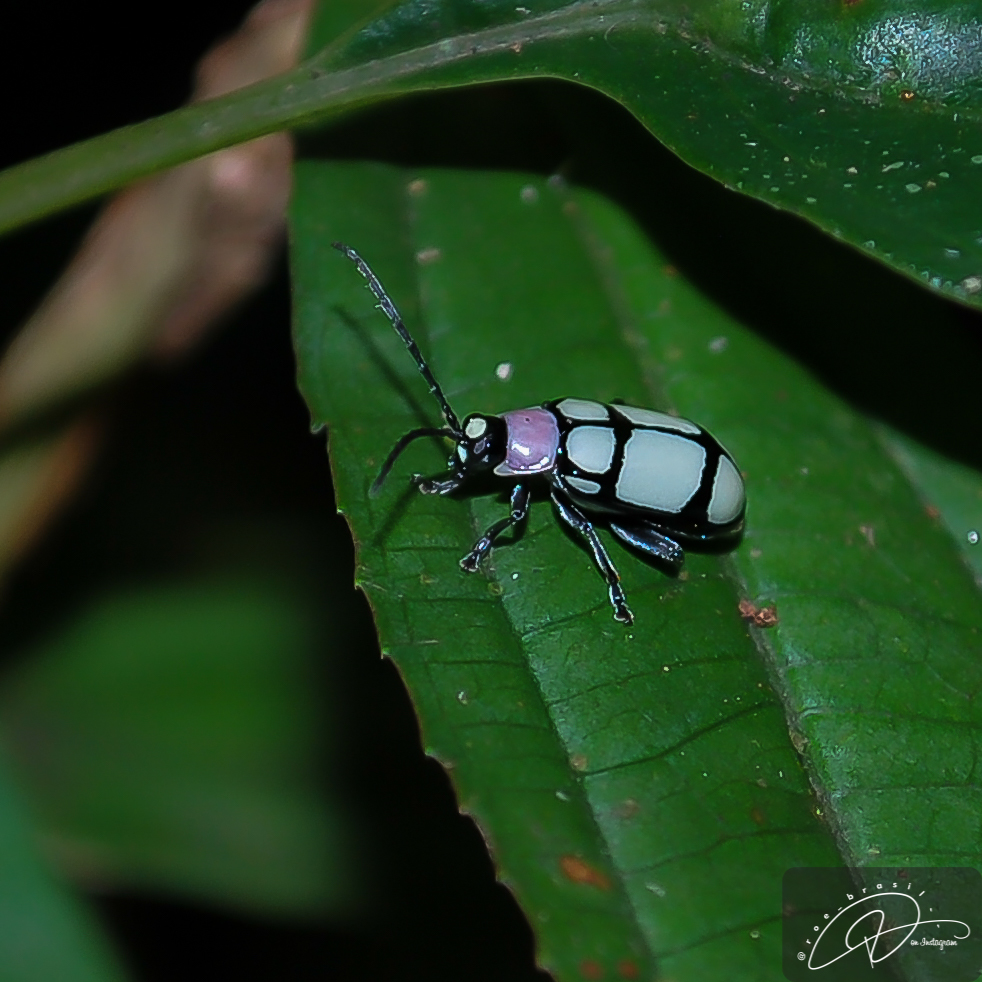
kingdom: Animalia
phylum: Arthropoda
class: Insecta
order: Coleoptera
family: Chrysomelidae
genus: Omophoita
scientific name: Omophoita
